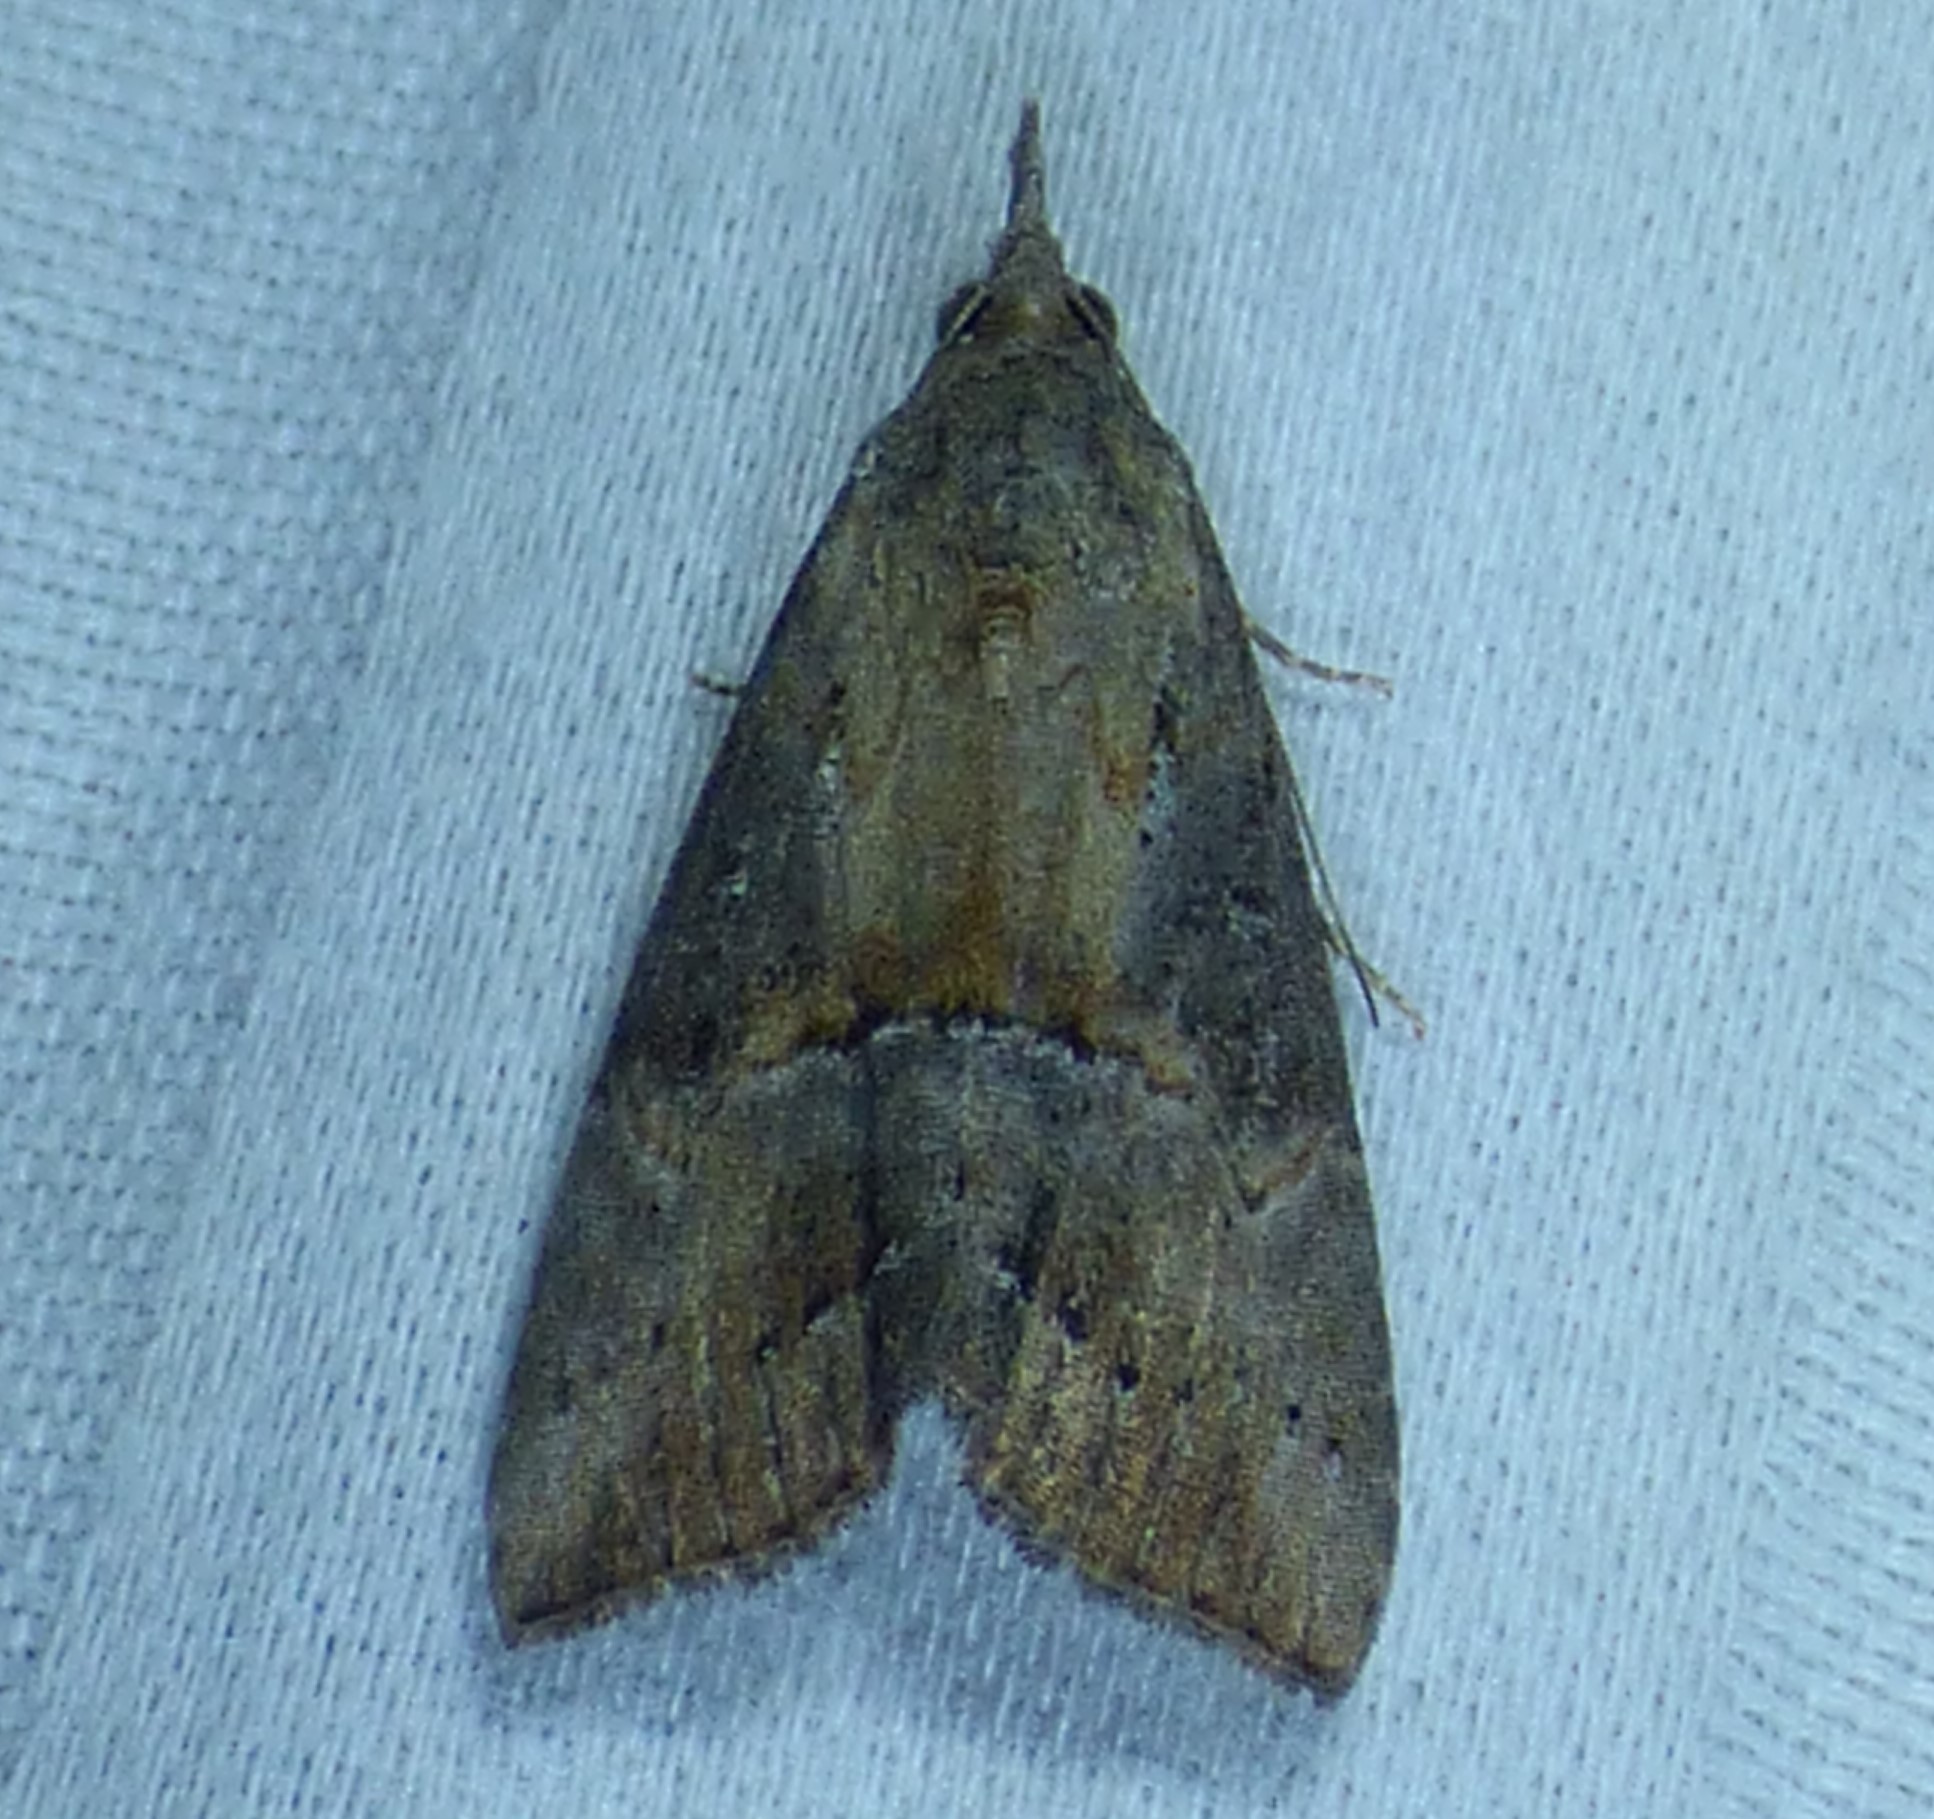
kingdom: Animalia
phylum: Arthropoda
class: Insecta
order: Lepidoptera
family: Erebidae
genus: Hypena
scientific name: Hypena scabra
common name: Green cloverworm
